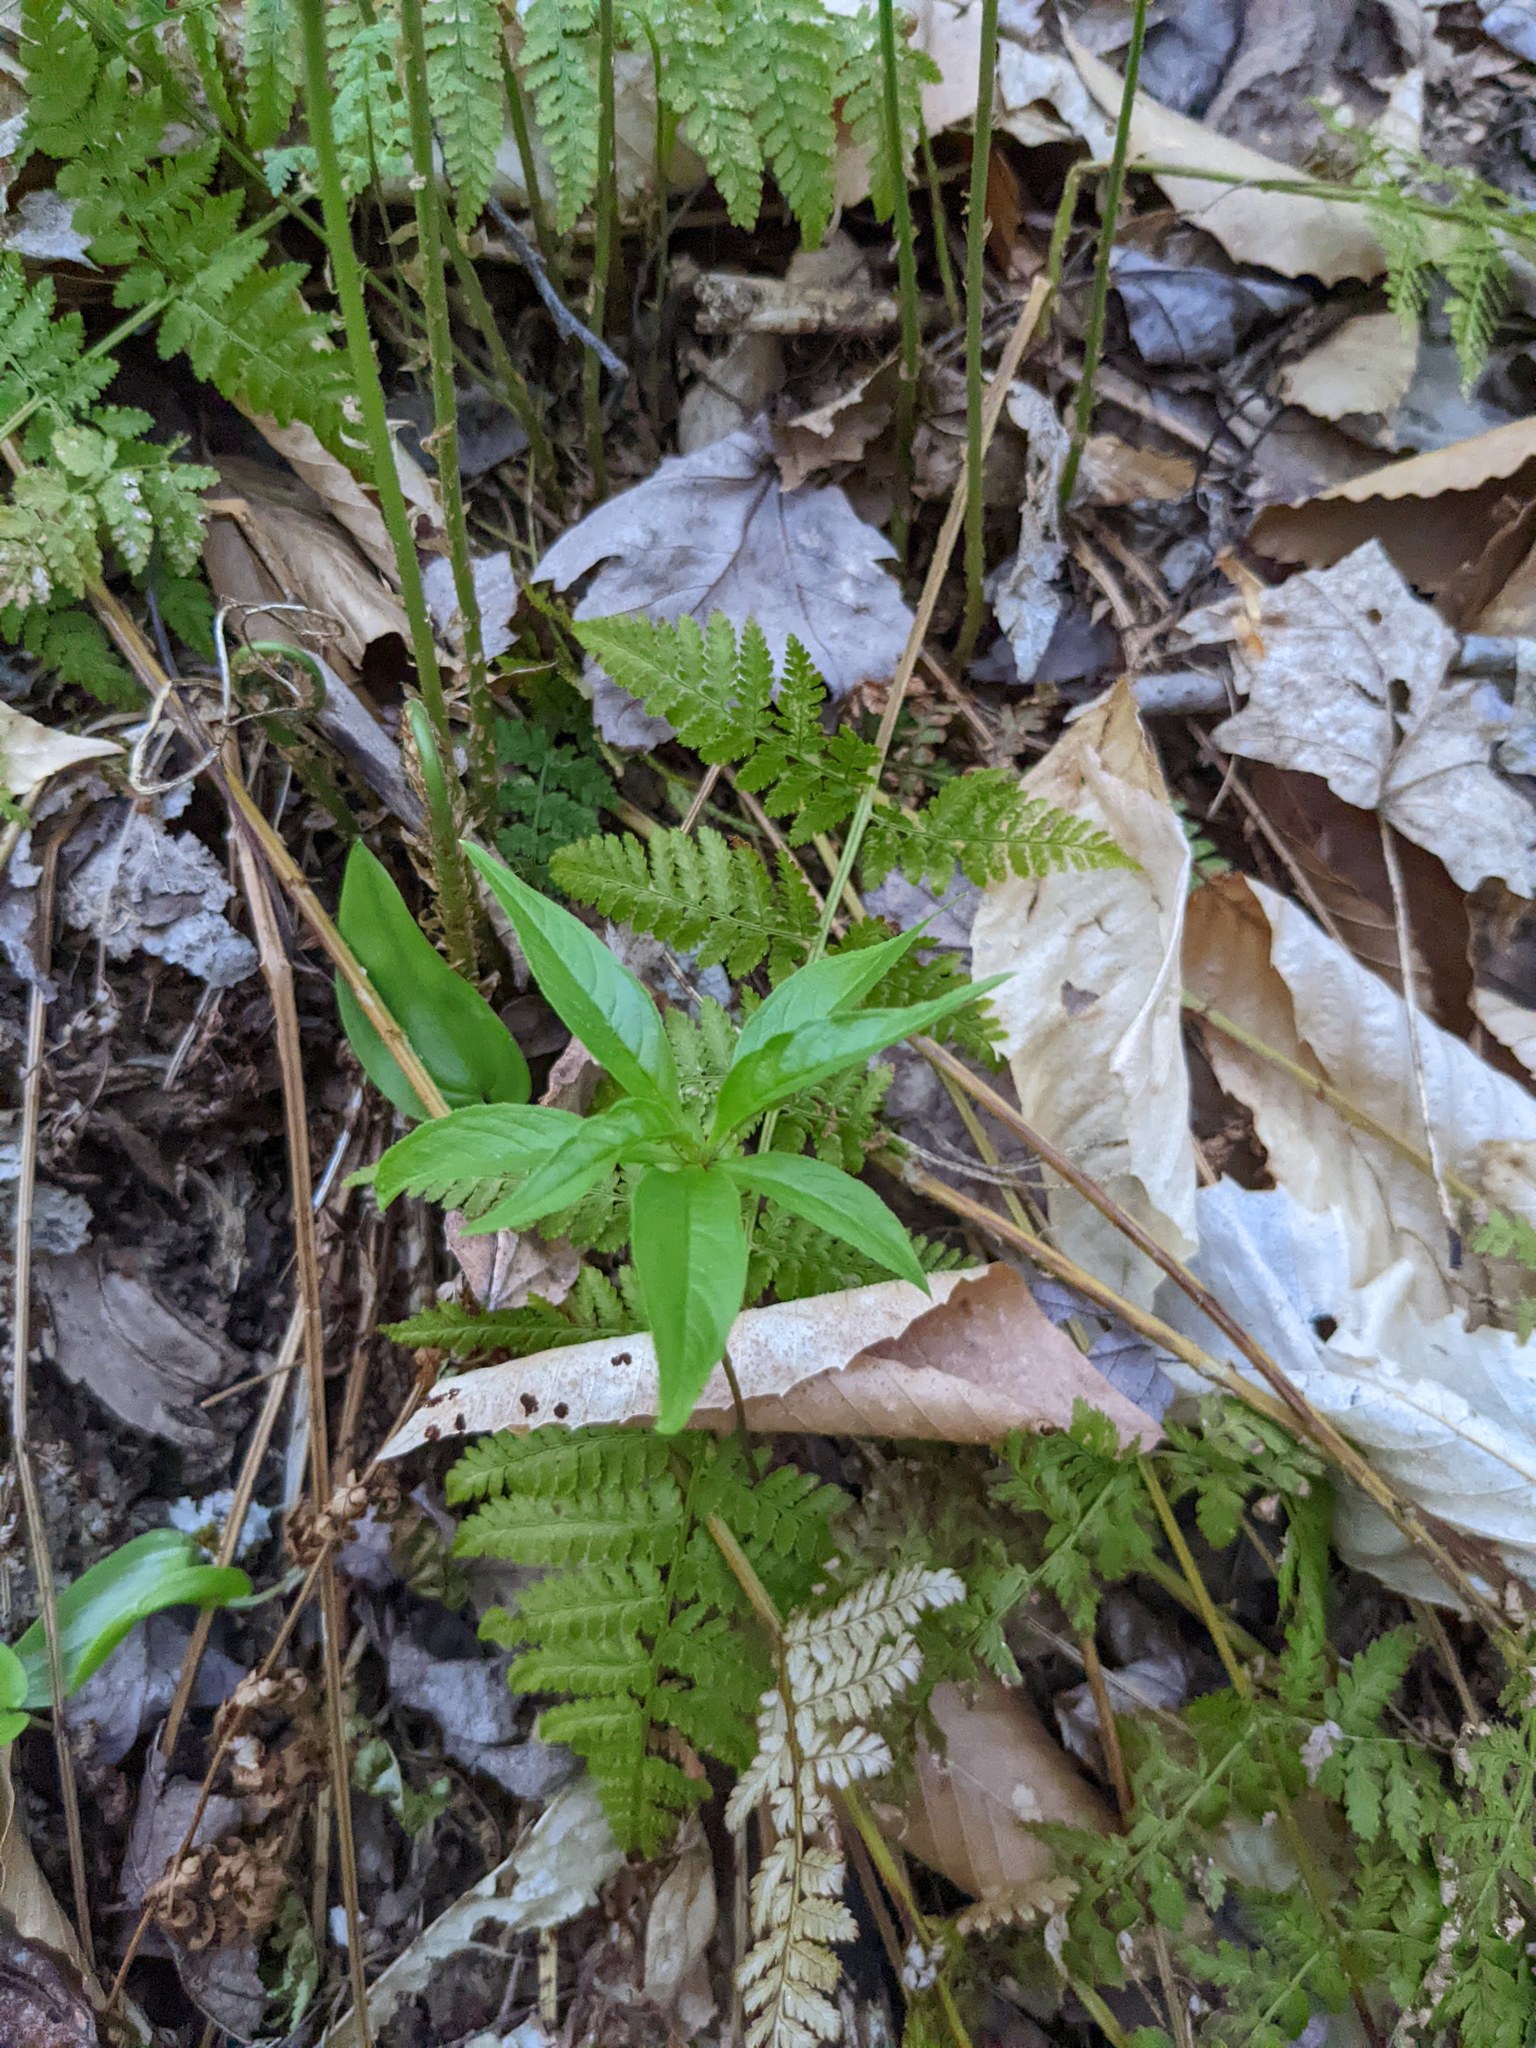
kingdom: Plantae
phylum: Tracheophyta
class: Magnoliopsida
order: Ericales
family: Primulaceae
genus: Lysimachia
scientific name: Lysimachia borealis
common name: American starflower
